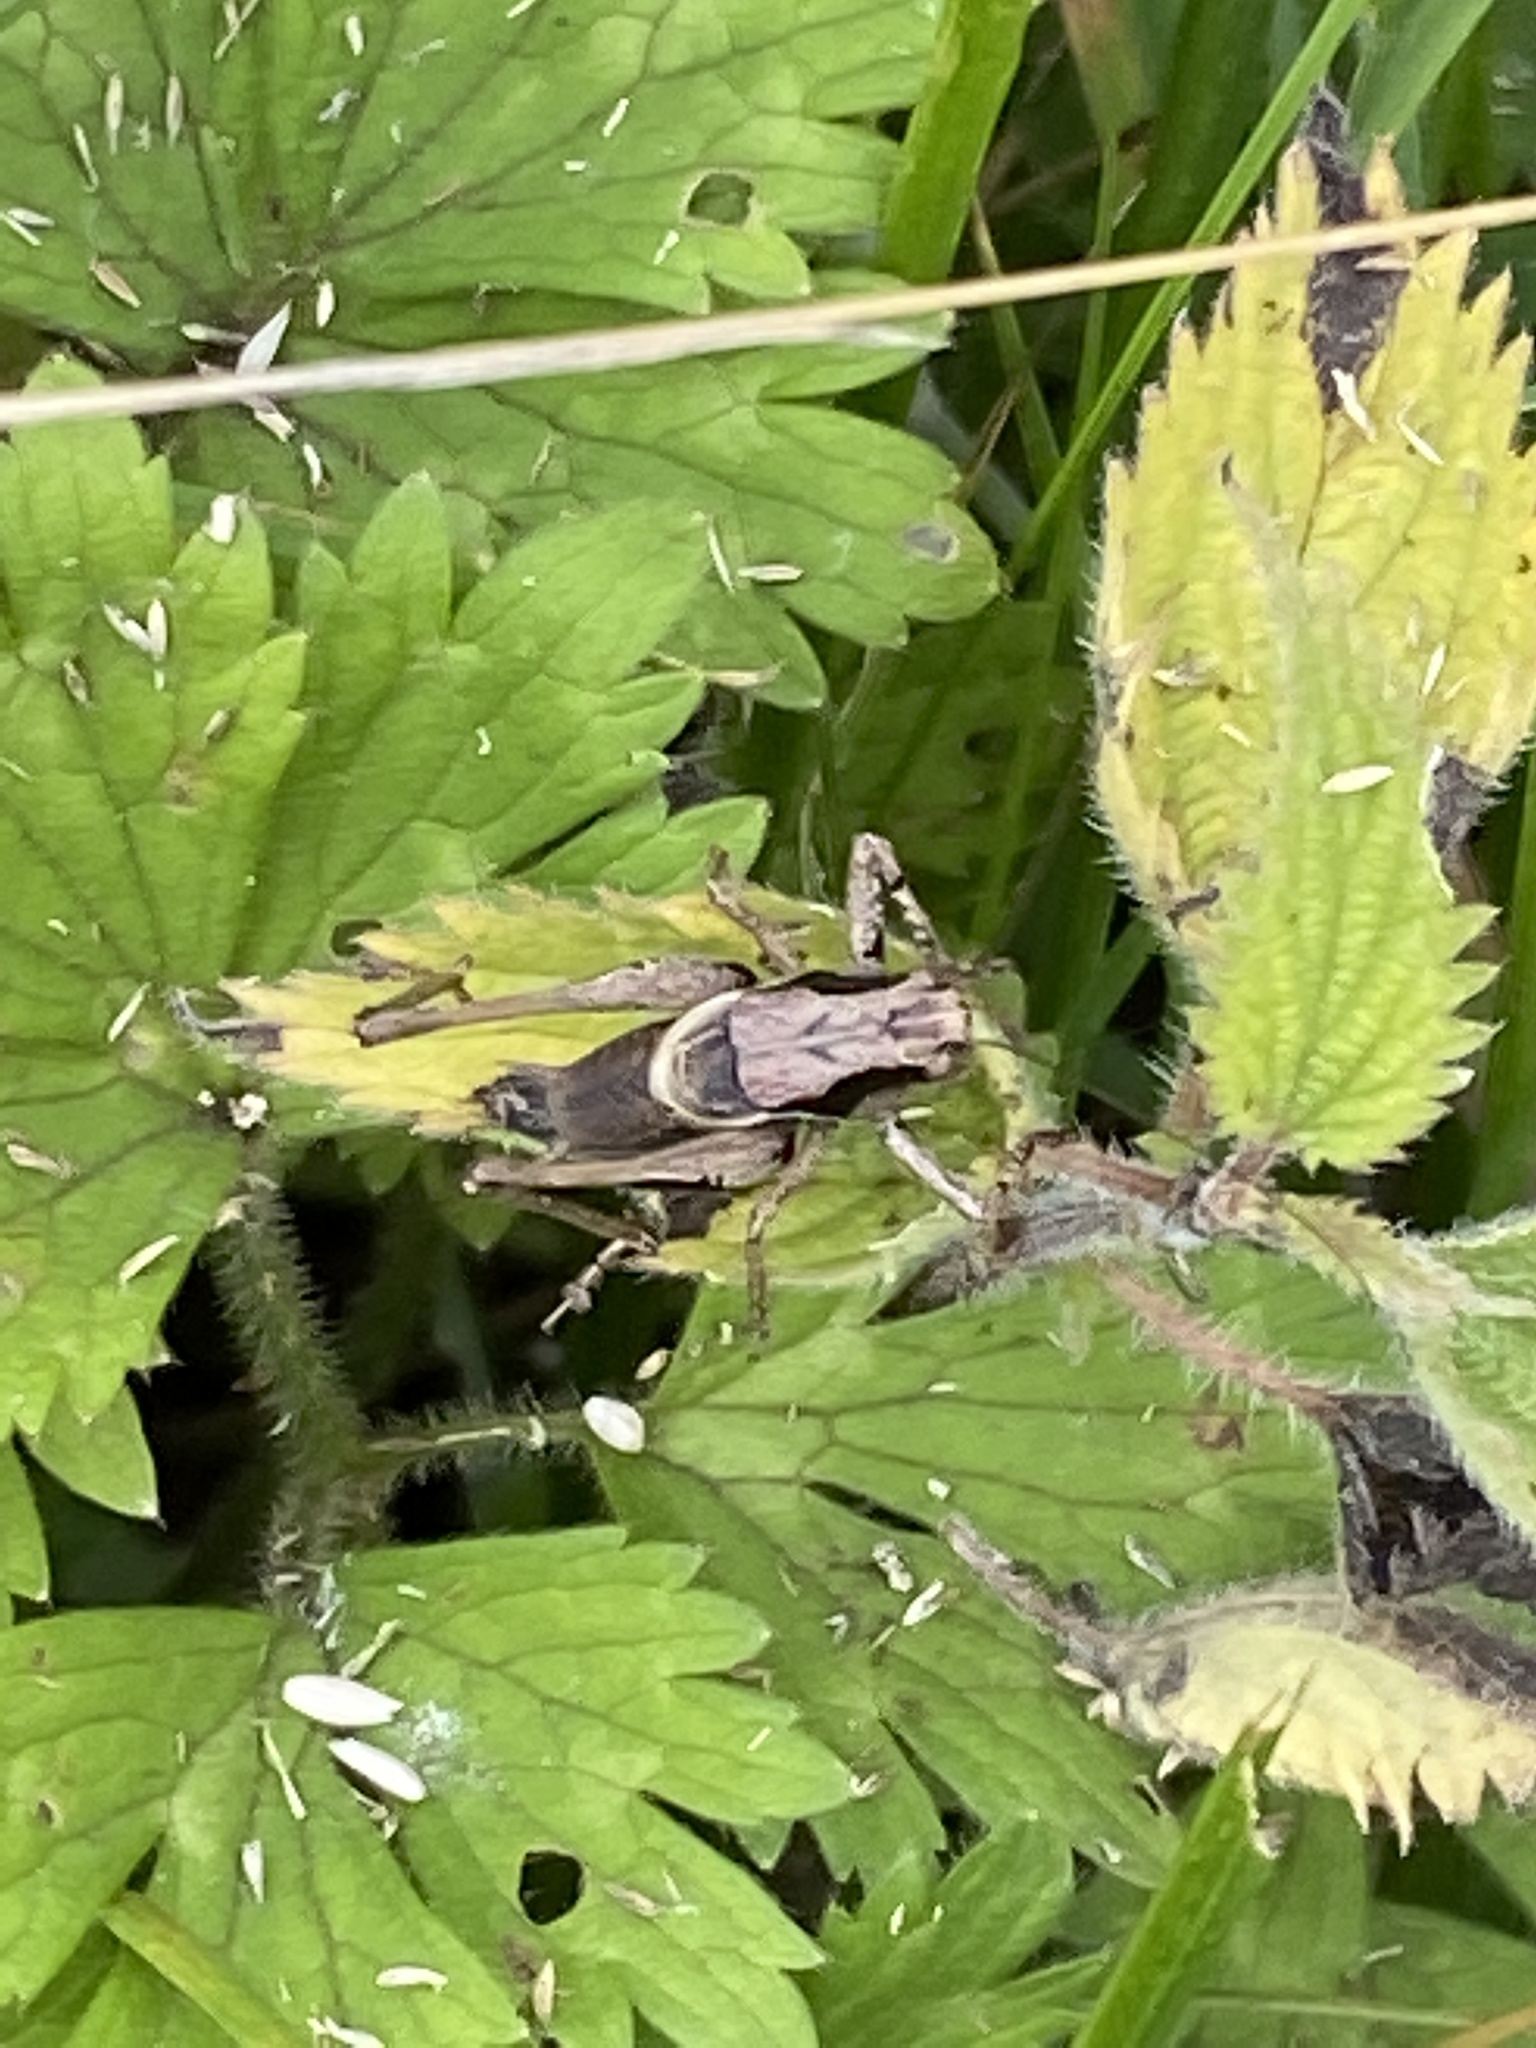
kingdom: Animalia
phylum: Arthropoda
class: Insecta
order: Orthoptera
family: Tettigoniidae
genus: Pholidoptera
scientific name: Pholidoptera griseoaptera
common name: Dark bush-cricket
